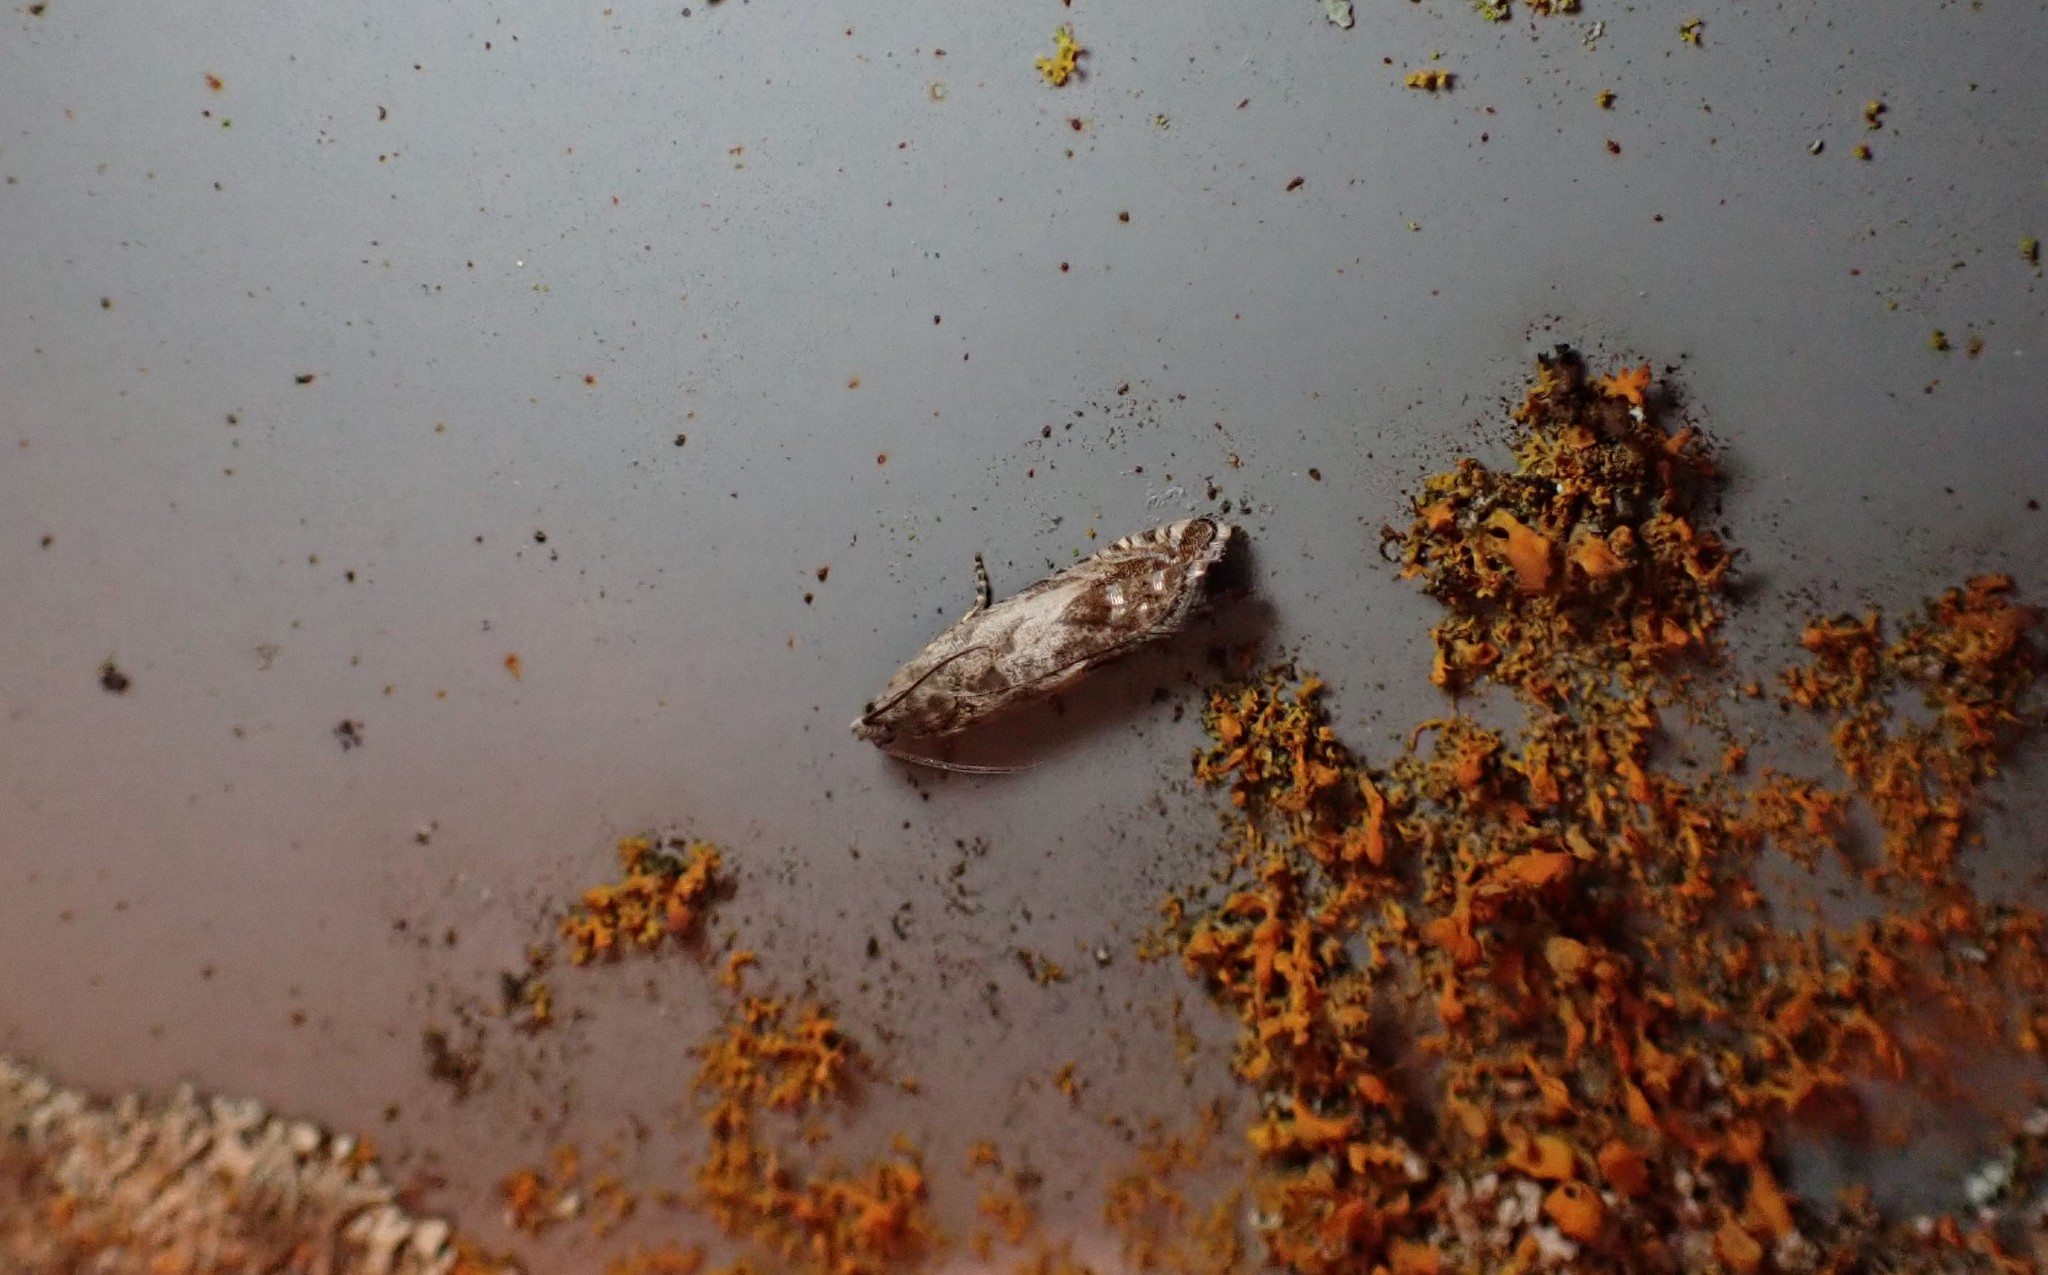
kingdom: Animalia
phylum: Arthropoda
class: Insecta
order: Lepidoptera
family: Tortricidae
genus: Cydia
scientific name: Cydia succedana
